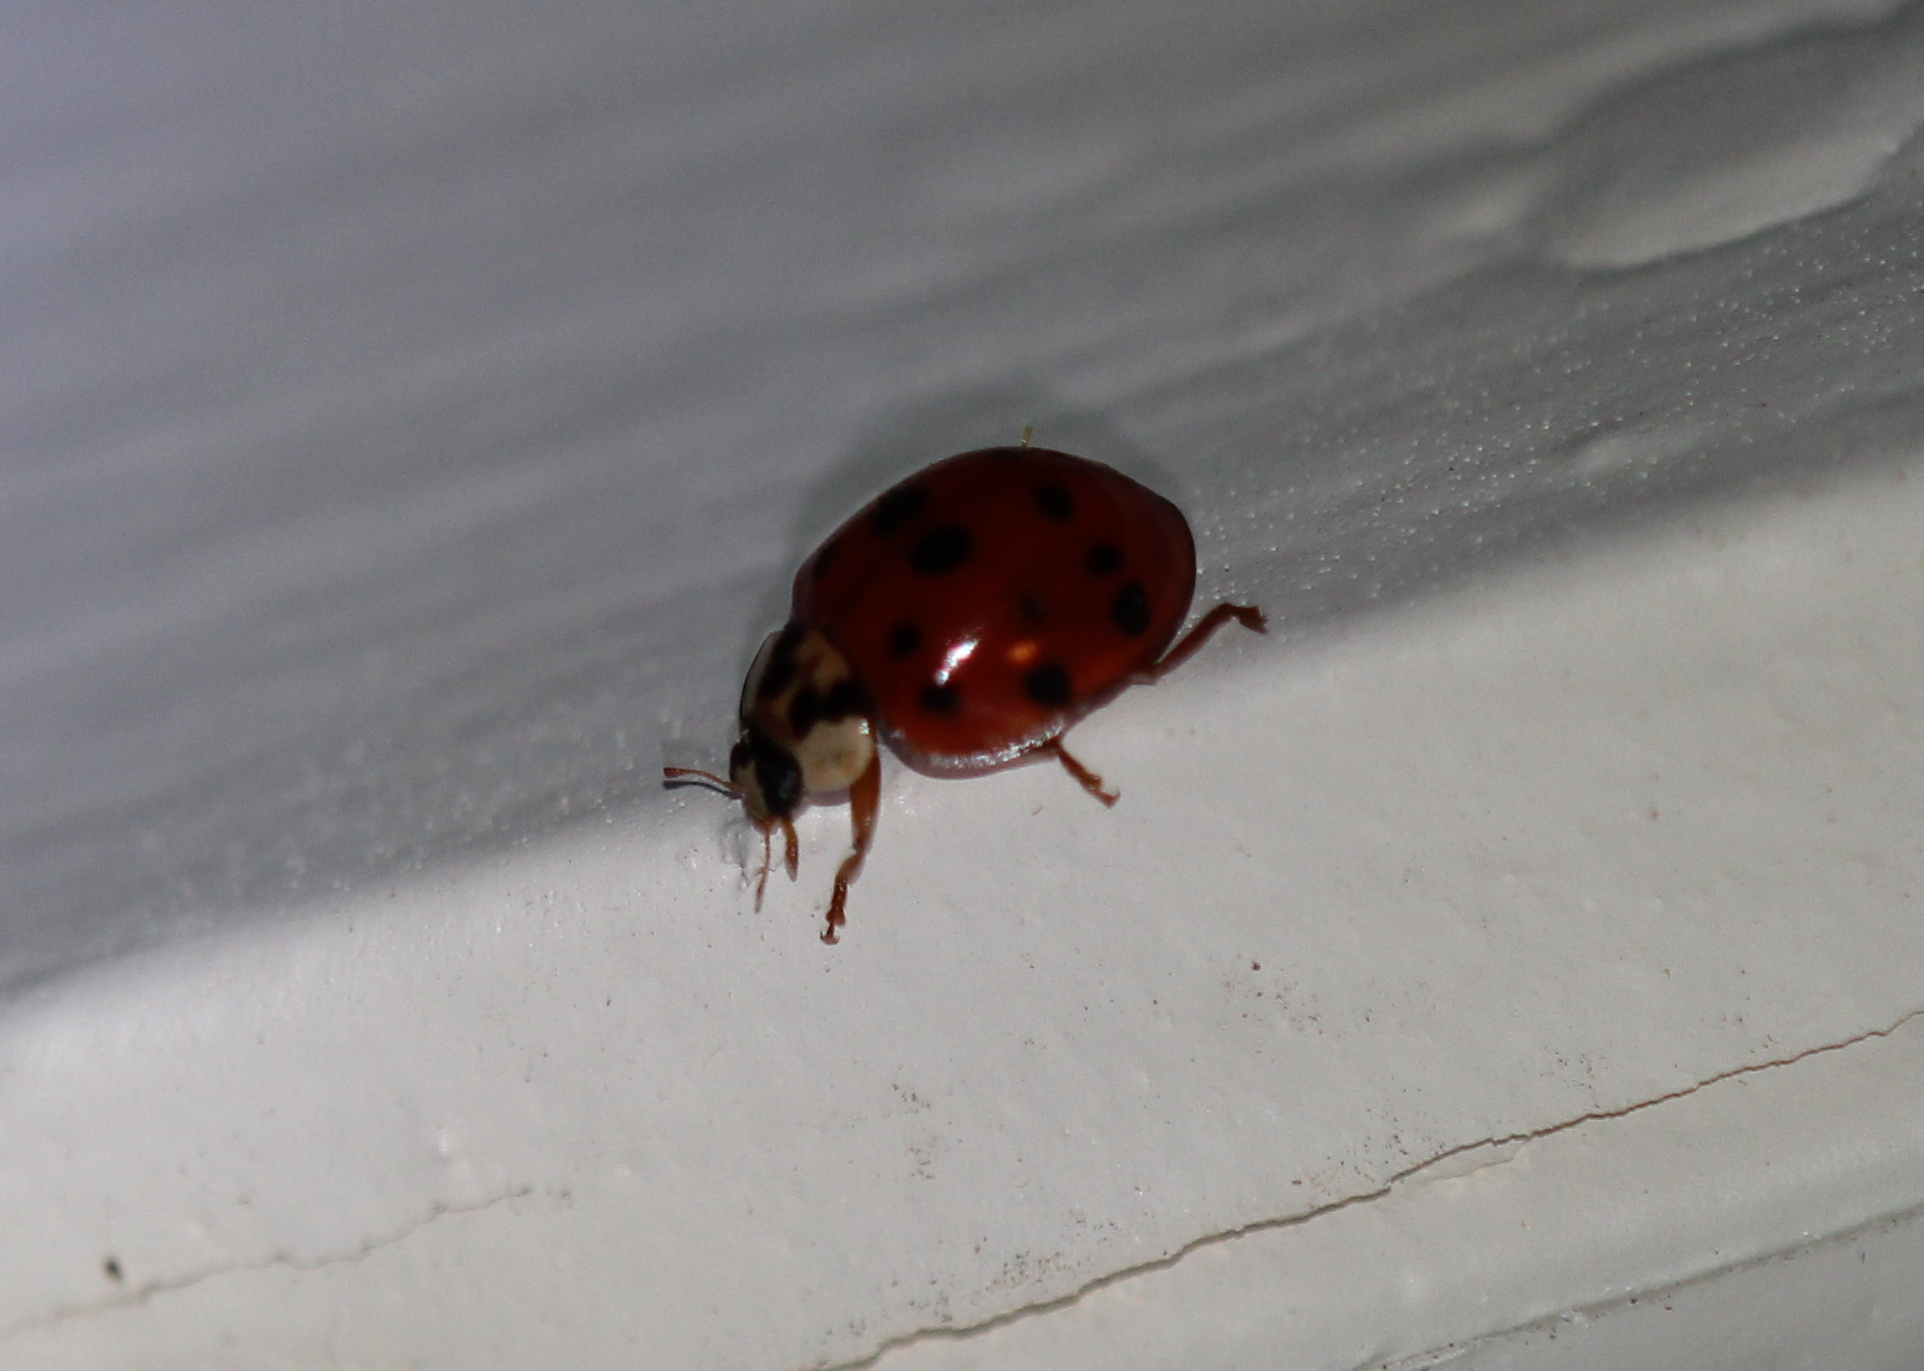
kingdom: Animalia
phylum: Arthropoda
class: Insecta
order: Coleoptera
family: Coccinellidae
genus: Harmonia
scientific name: Harmonia axyridis
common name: Harlequin ladybird
